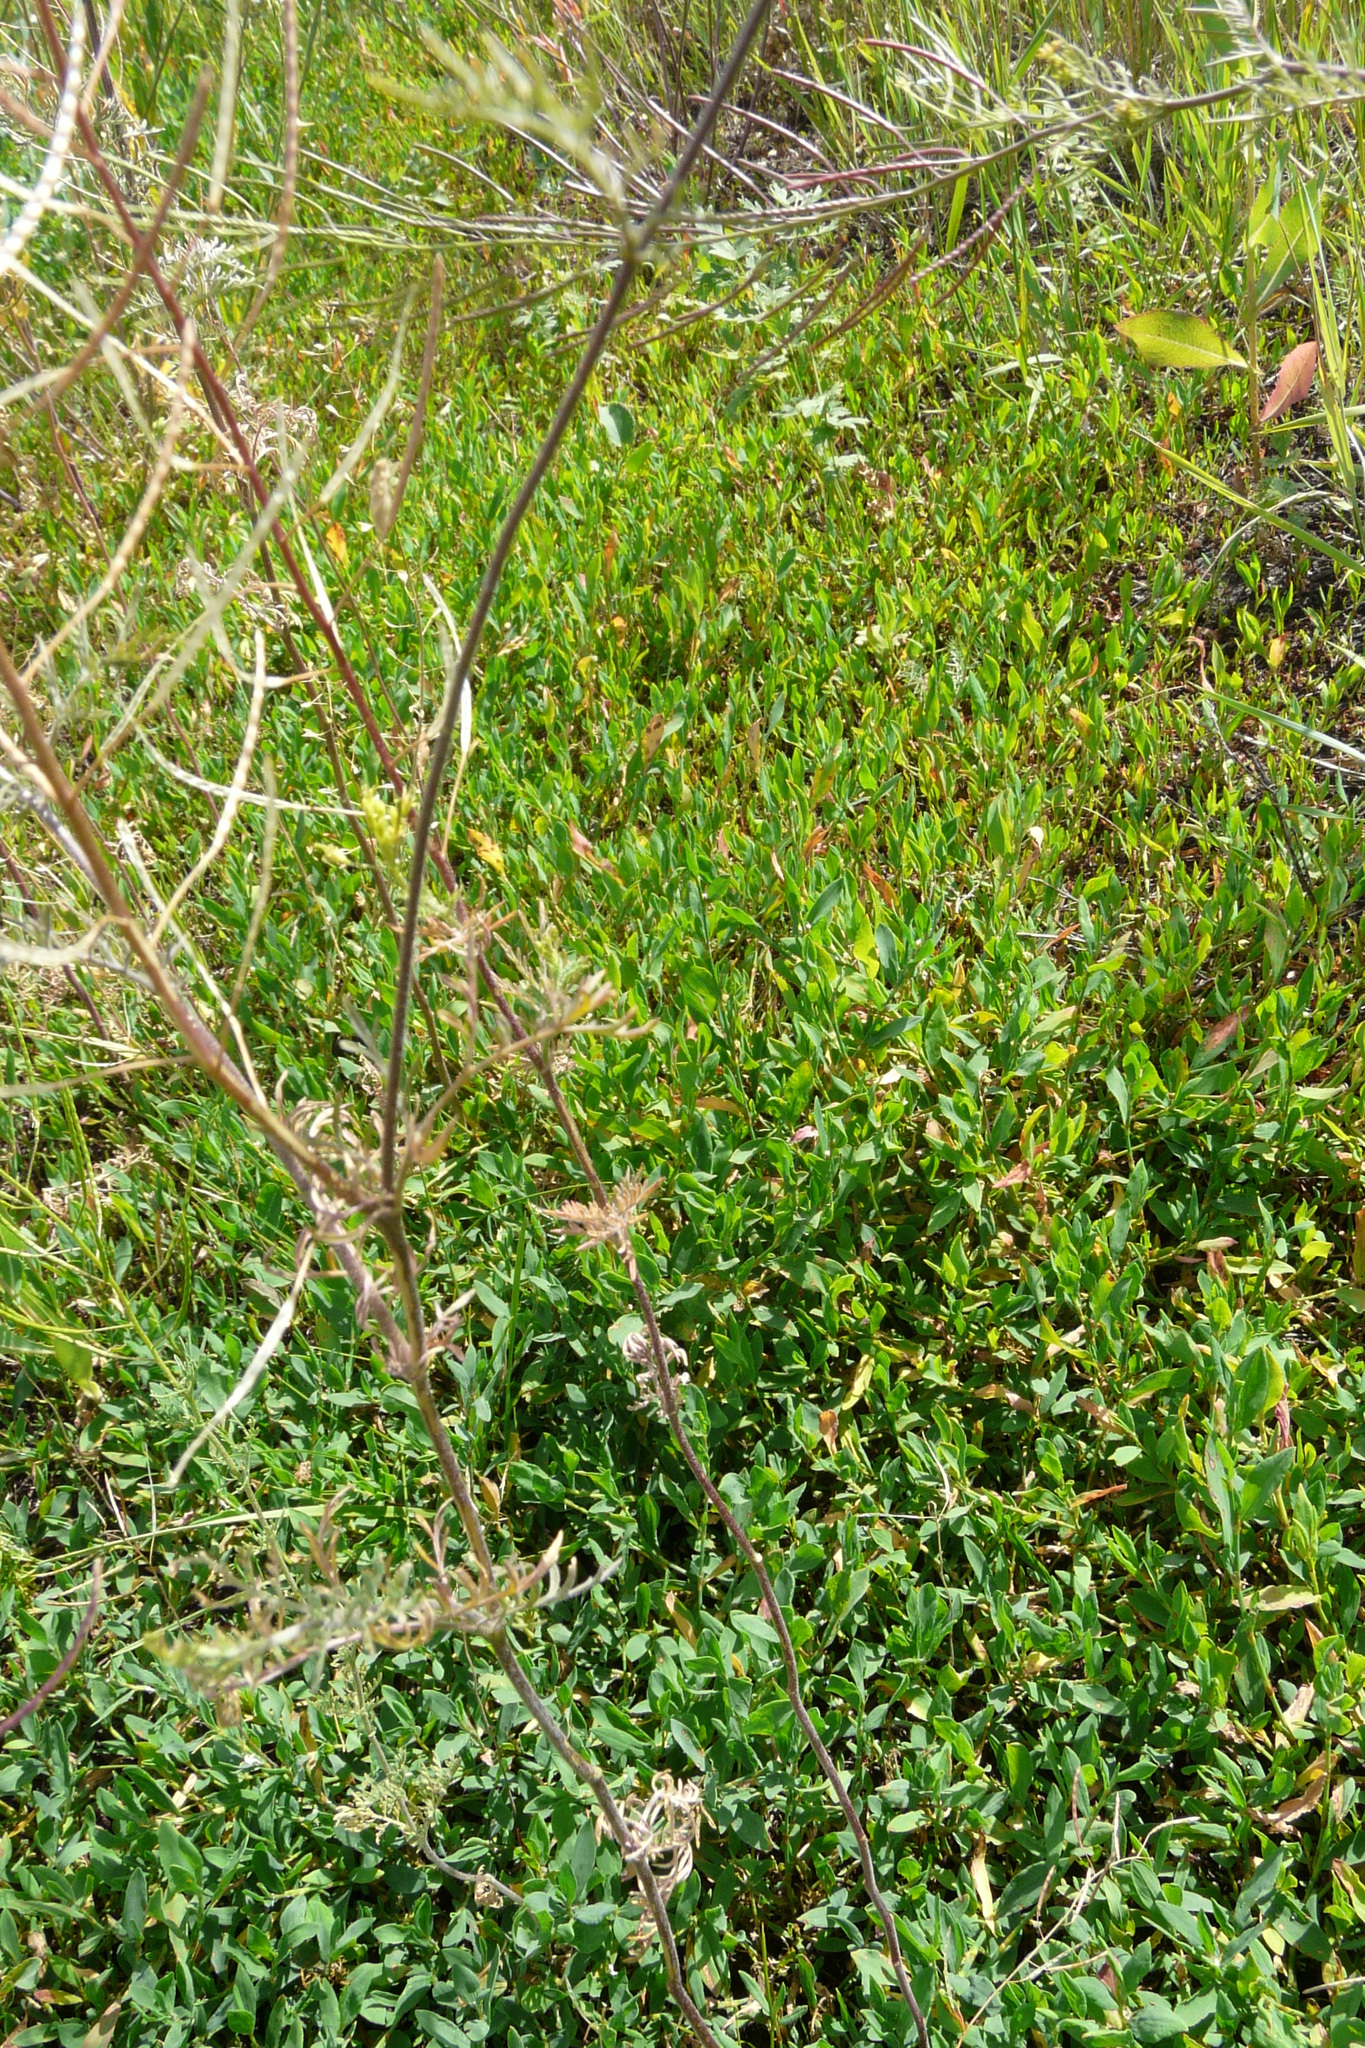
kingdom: Plantae
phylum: Tracheophyta
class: Magnoliopsida
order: Brassicales
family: Brassicaceae
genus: Descurainia
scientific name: Descurainia sophia
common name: Flixweed
